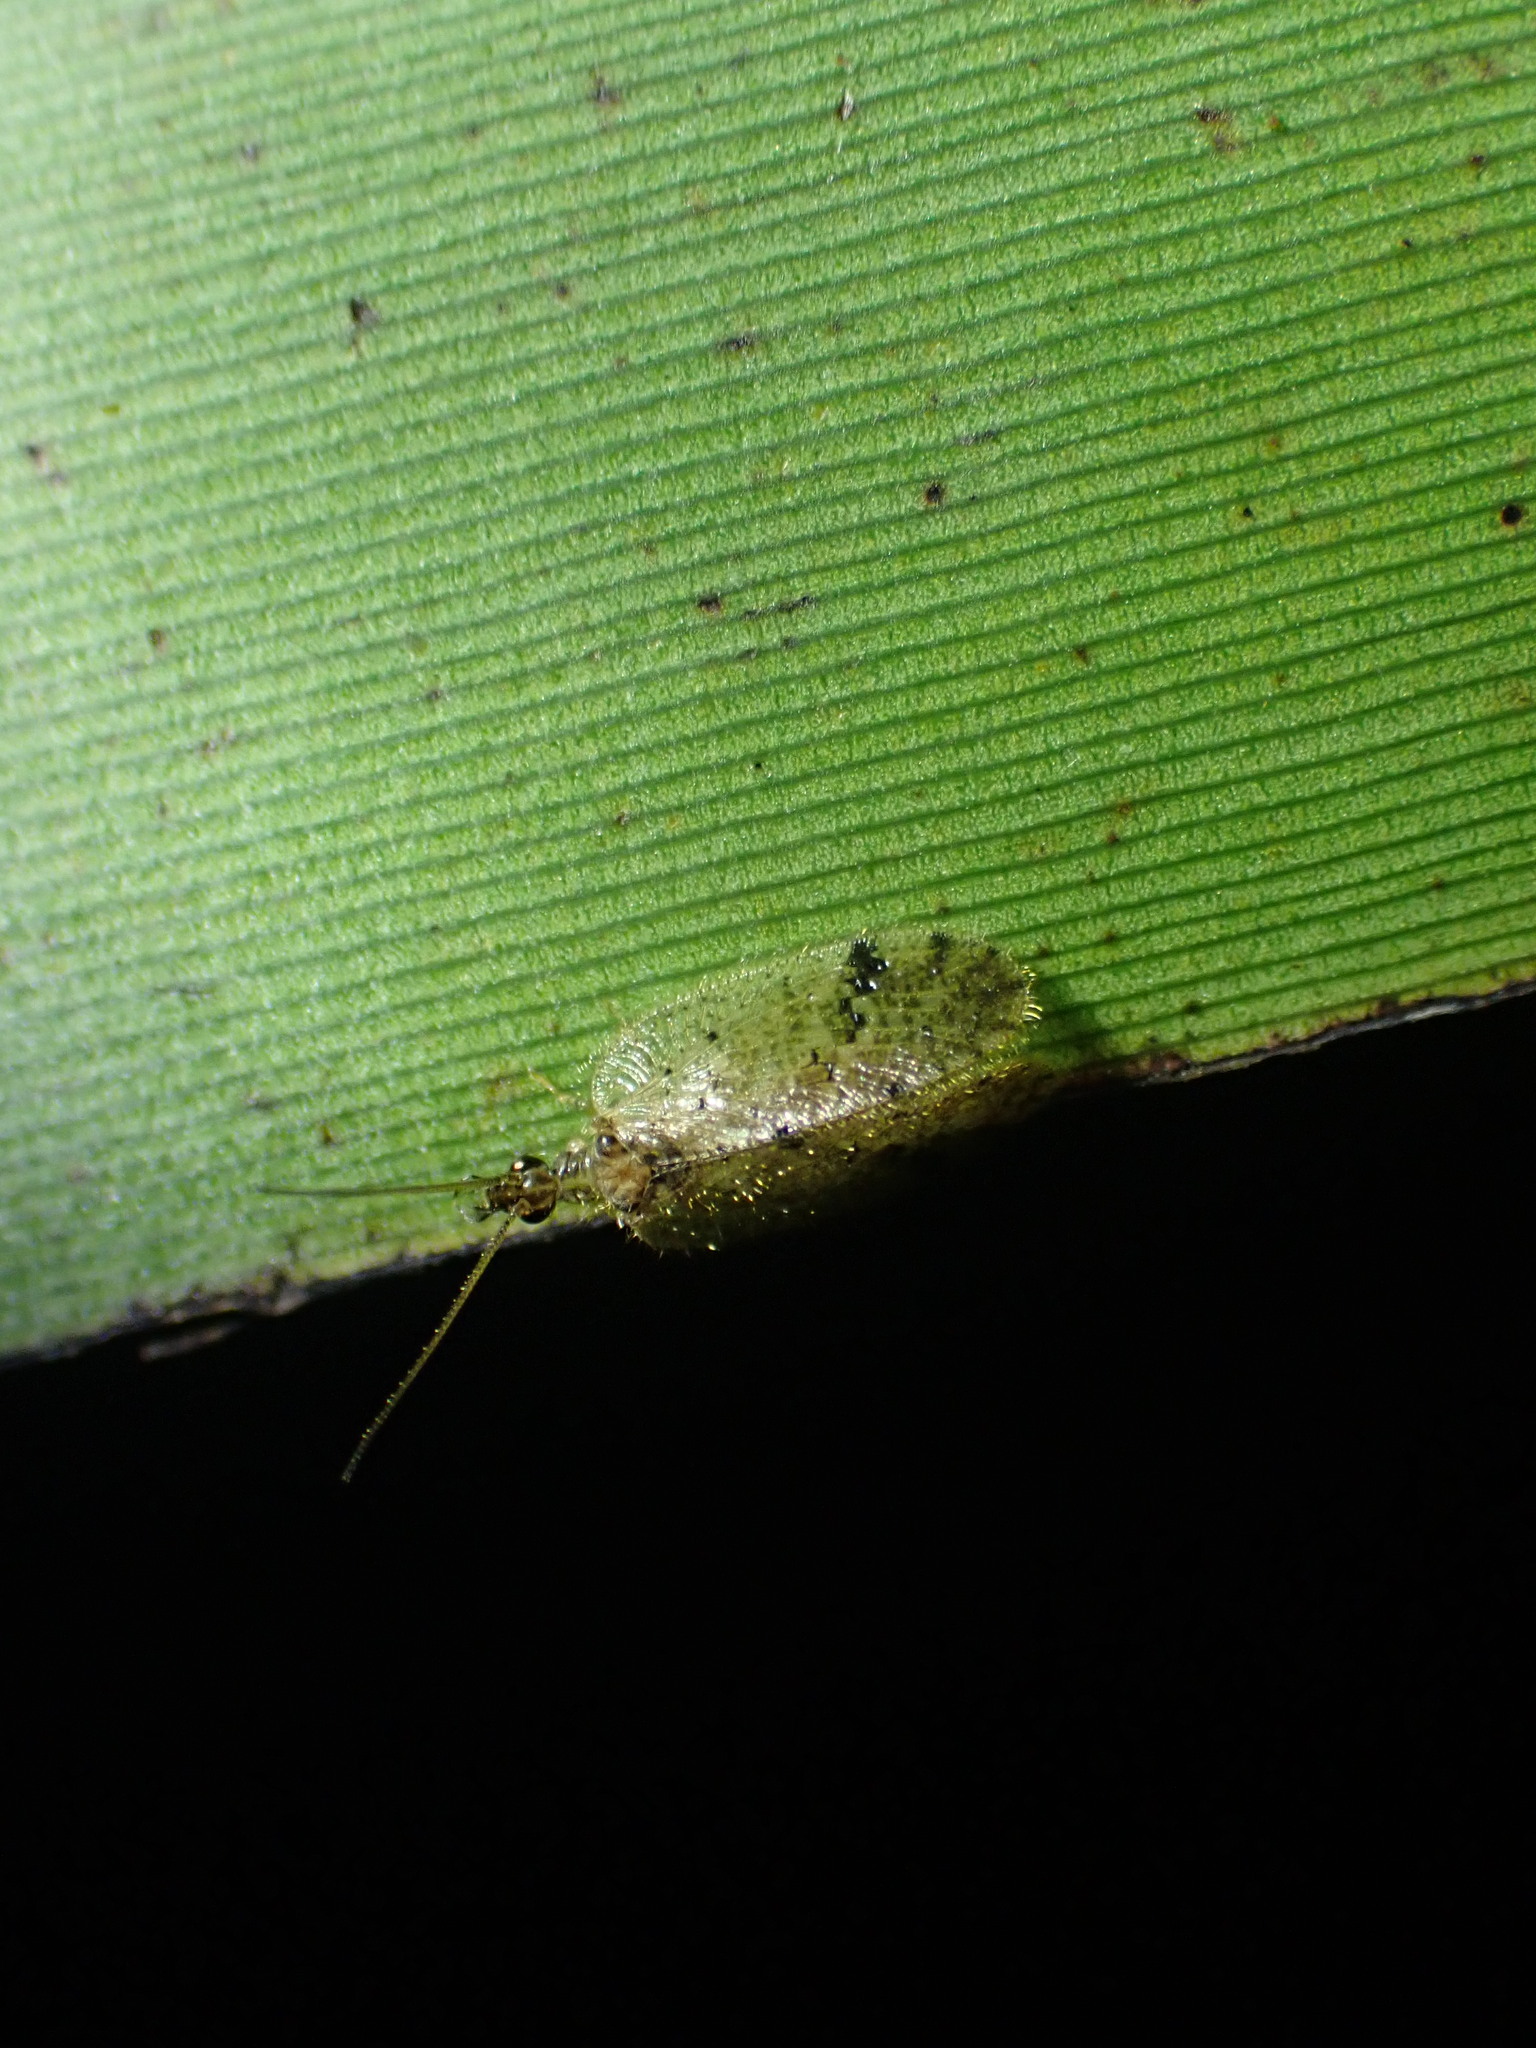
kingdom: Animalia
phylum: Arthropoda
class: Insecta
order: Neuroptera
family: Hemerobiidae
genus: Psectra
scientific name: Psectra nakaharai
